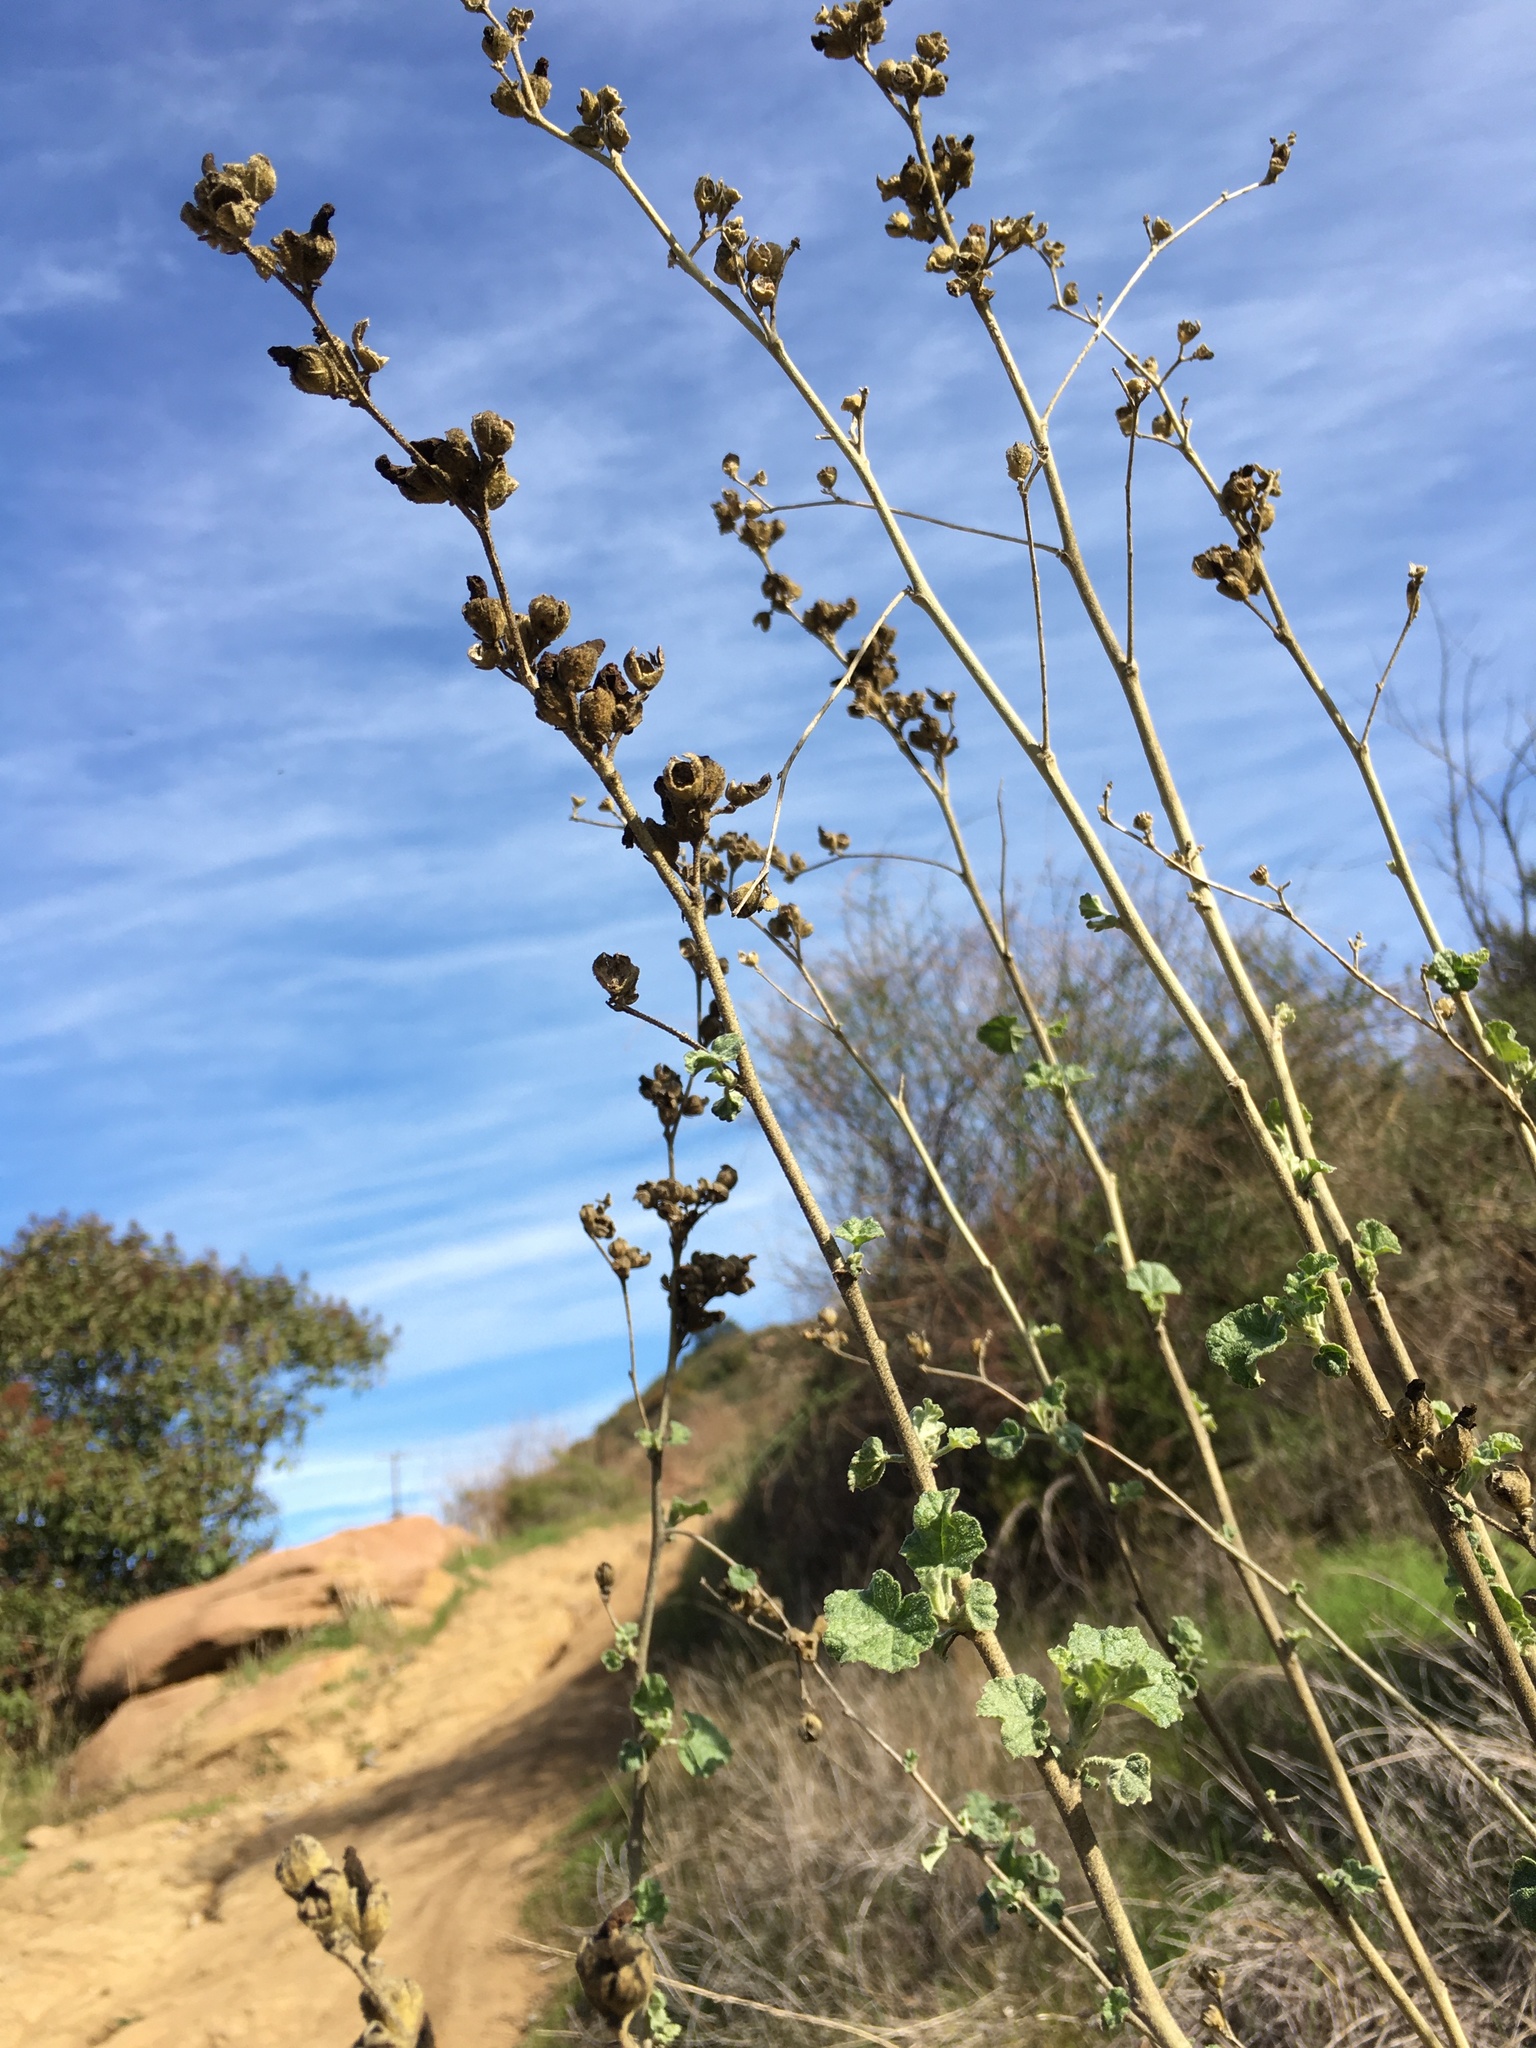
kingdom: Plantae
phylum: Tracheophyta
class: Magnoliopsida
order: Malvales
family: Malvaceae
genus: Malacothamnus
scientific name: Malacothamnus fasciculatus
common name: Sant cruz island bush-mallow
